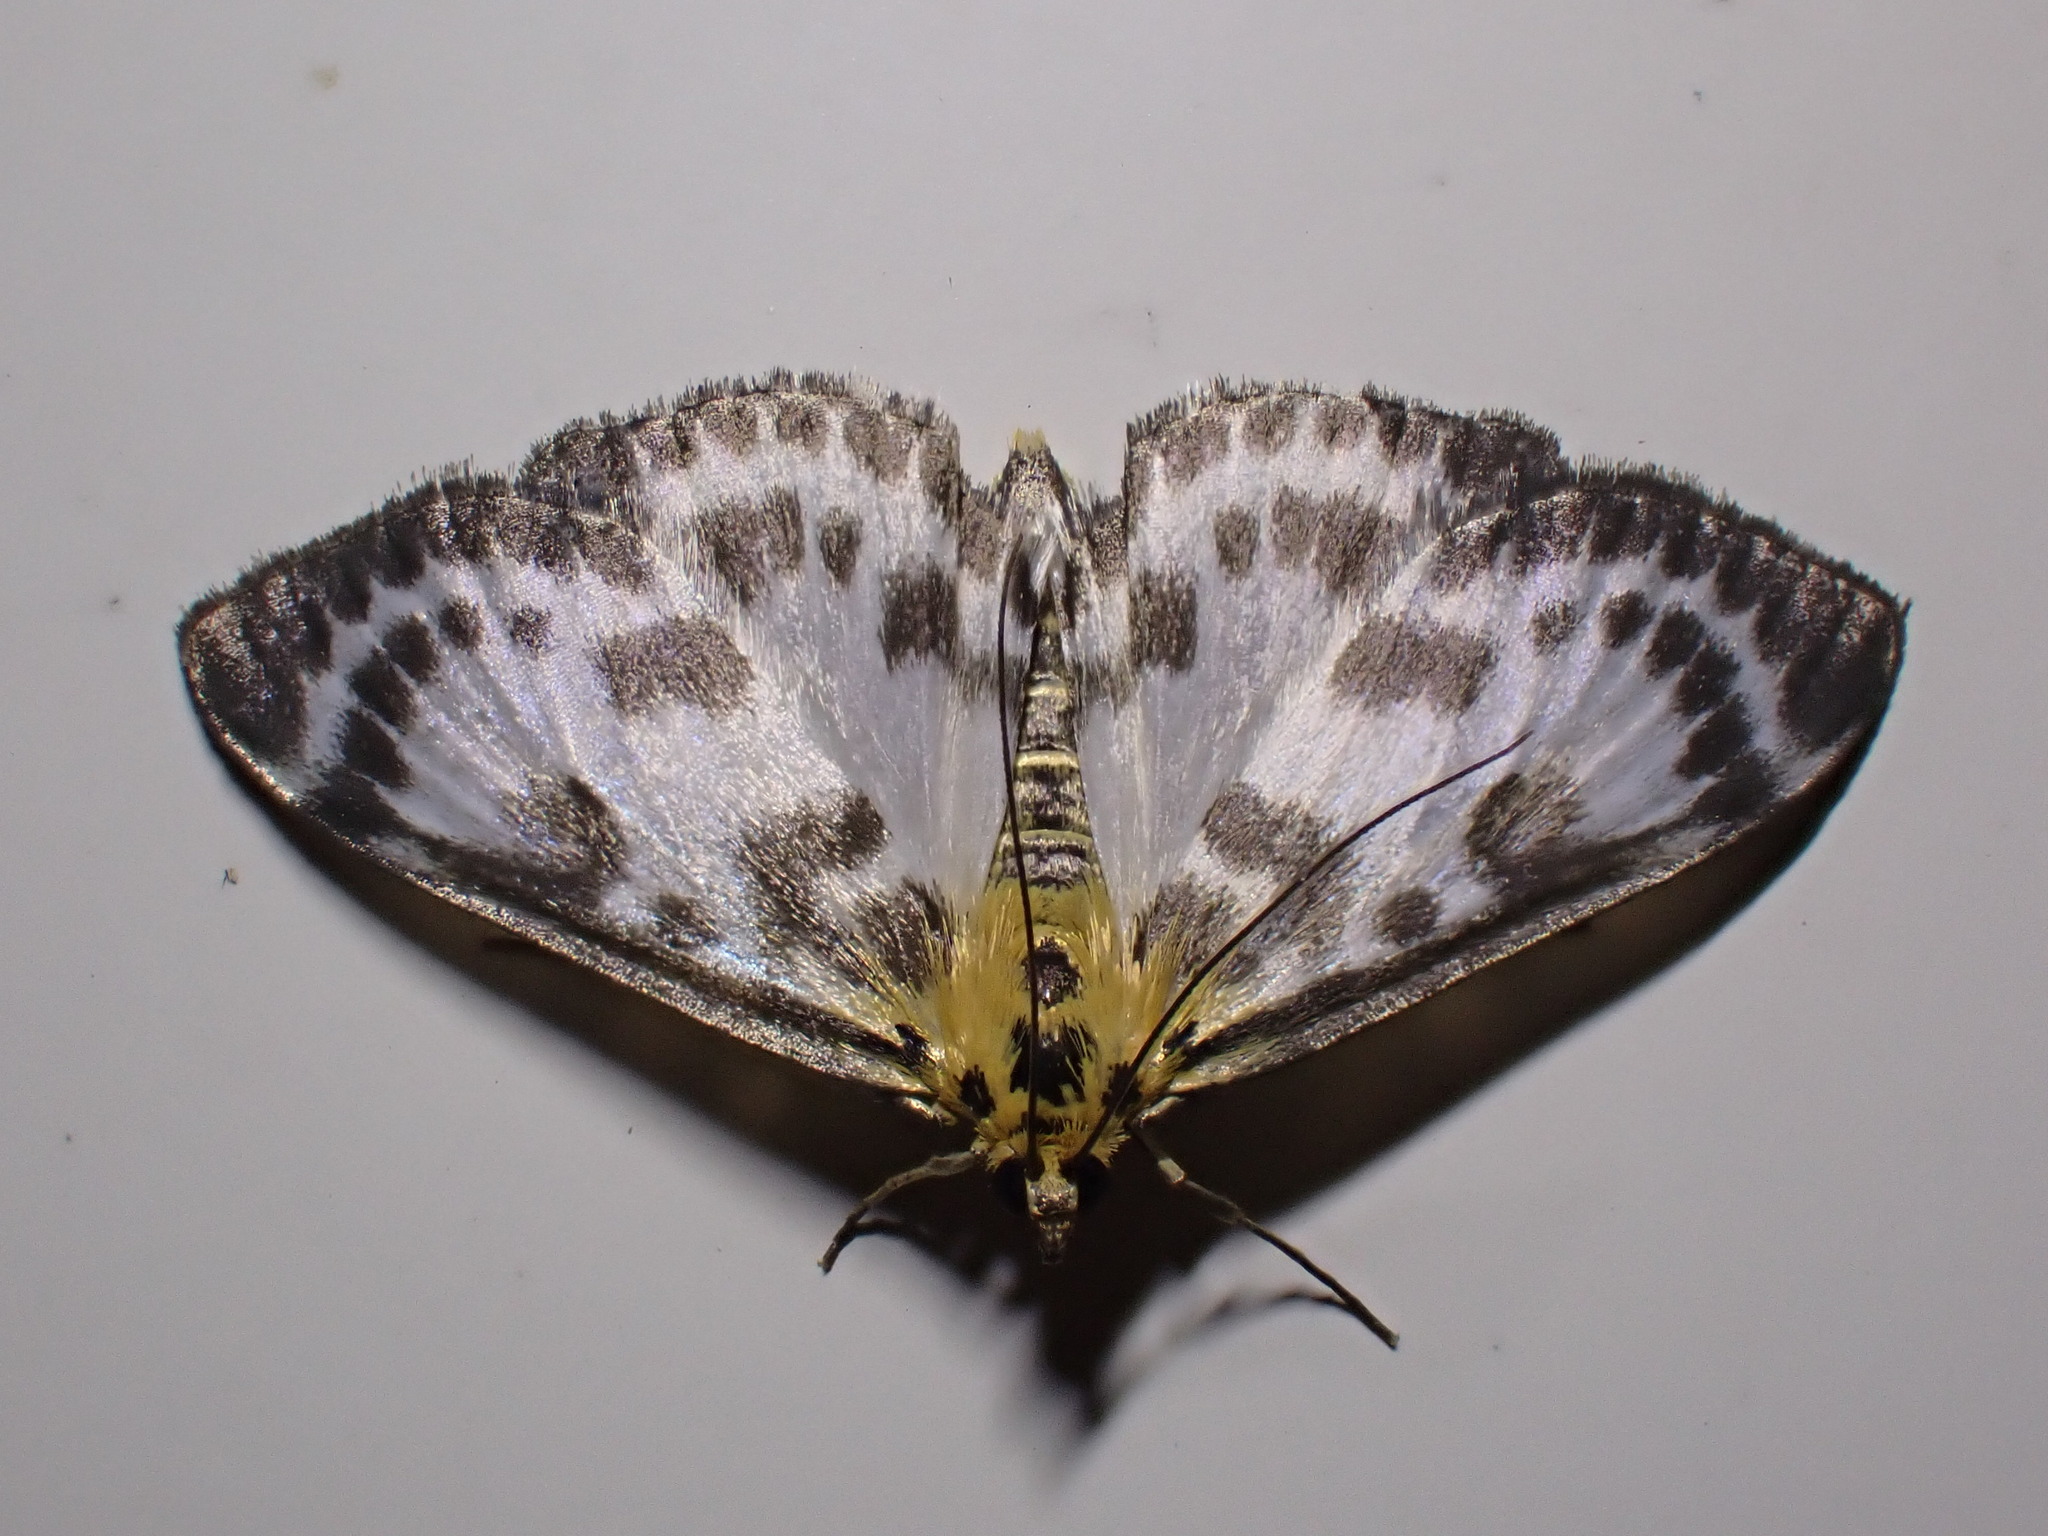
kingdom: Animalia
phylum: Arthropoda
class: Insecta
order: Lepidoptera
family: Crambidae
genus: Anania
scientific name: Anania hortulata
